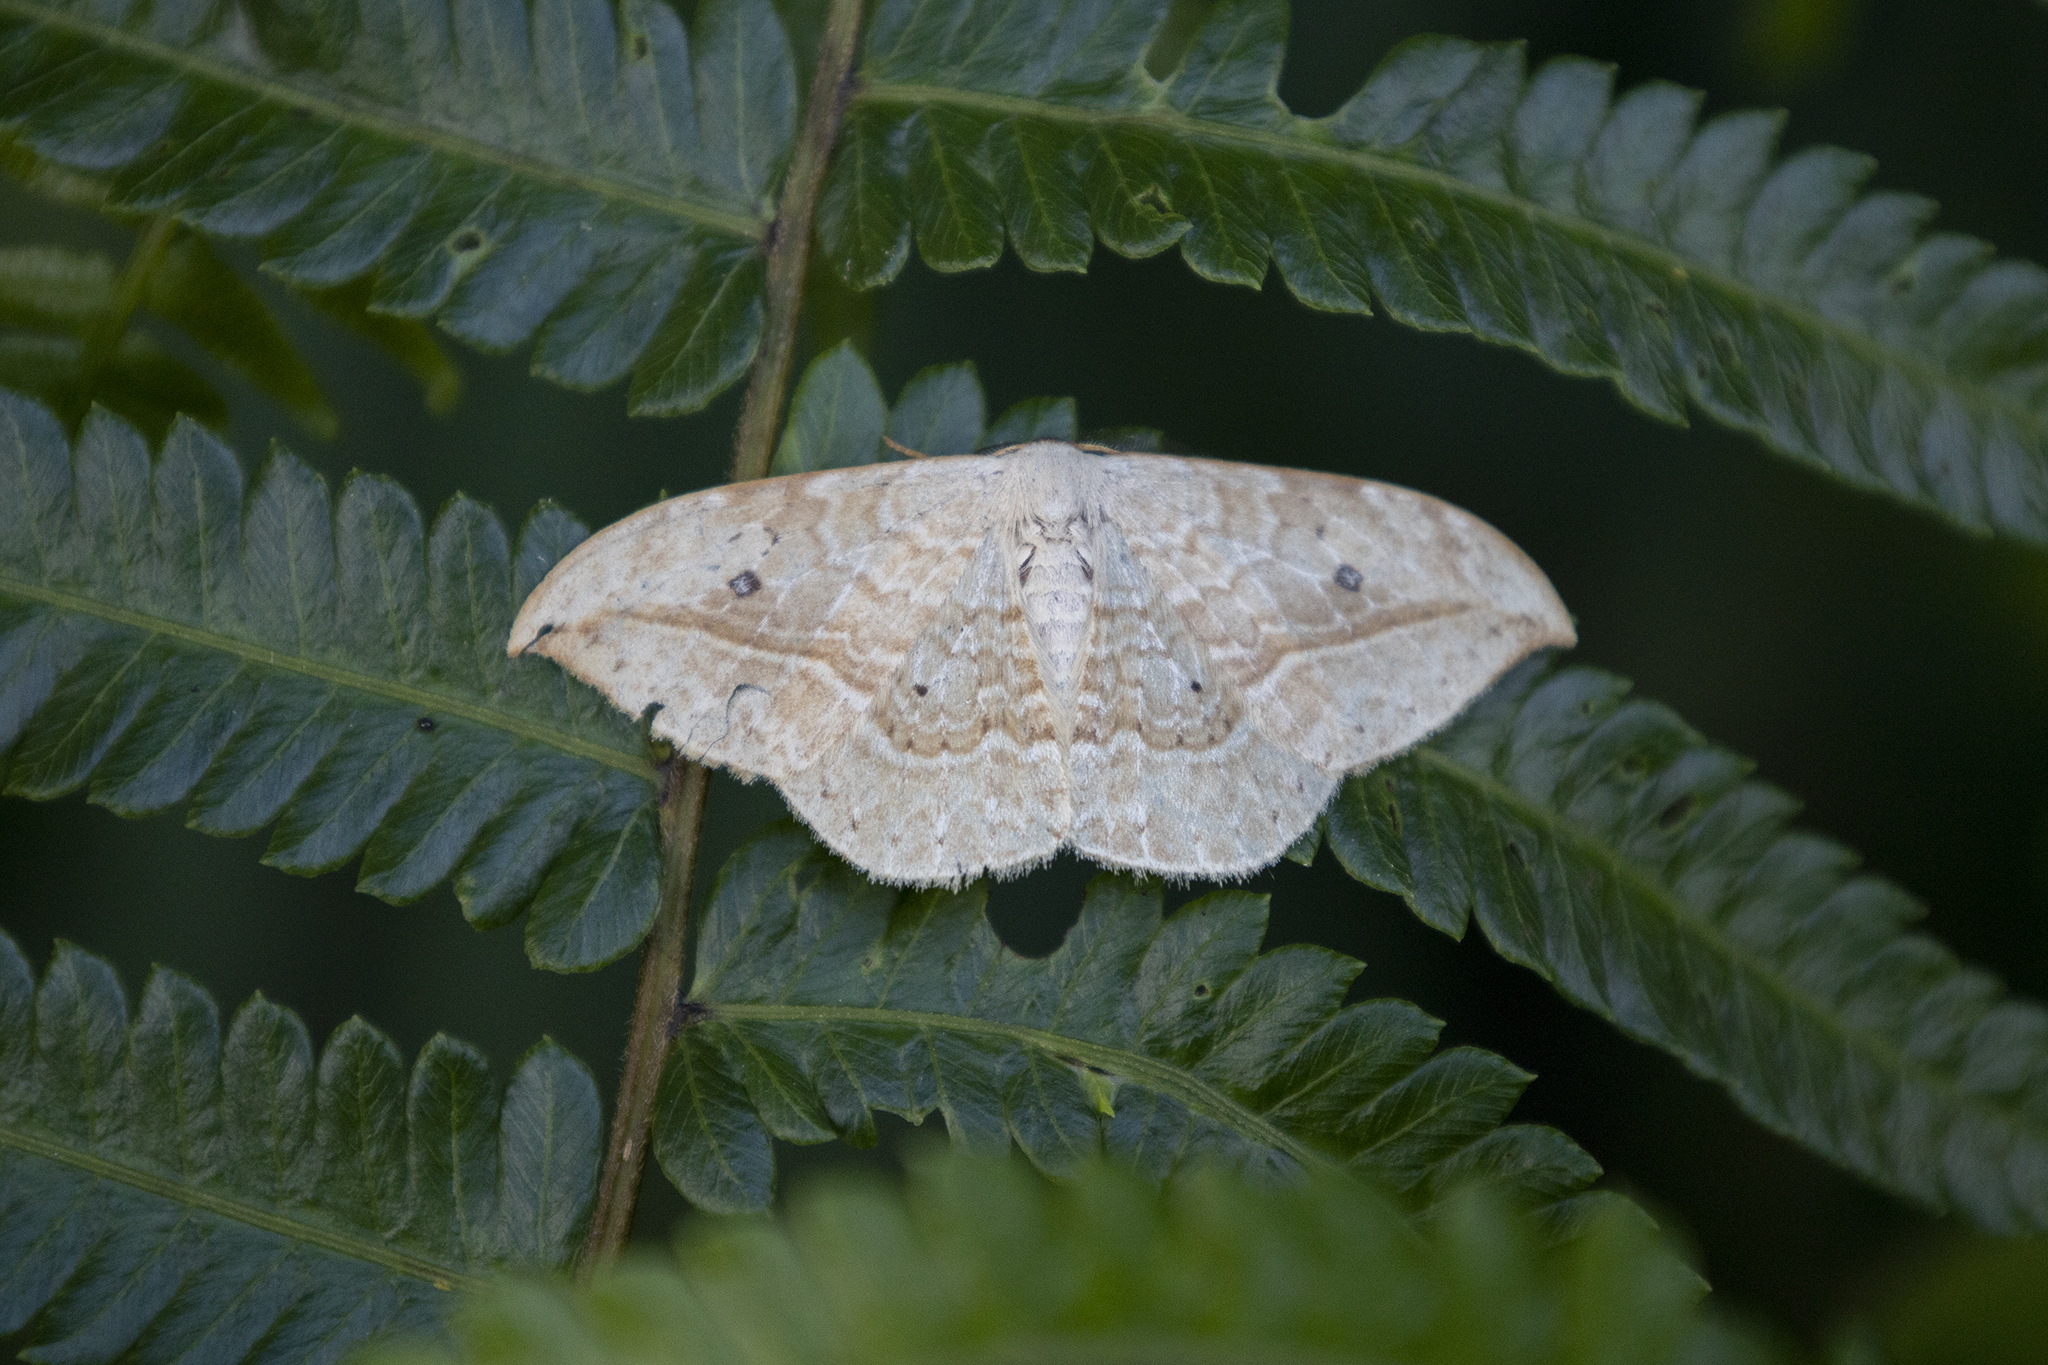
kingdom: Animalia
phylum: Arthropoda
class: Insecta
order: Lepidoptera
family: Drepanidae
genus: Drepana
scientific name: Drepana pallida
